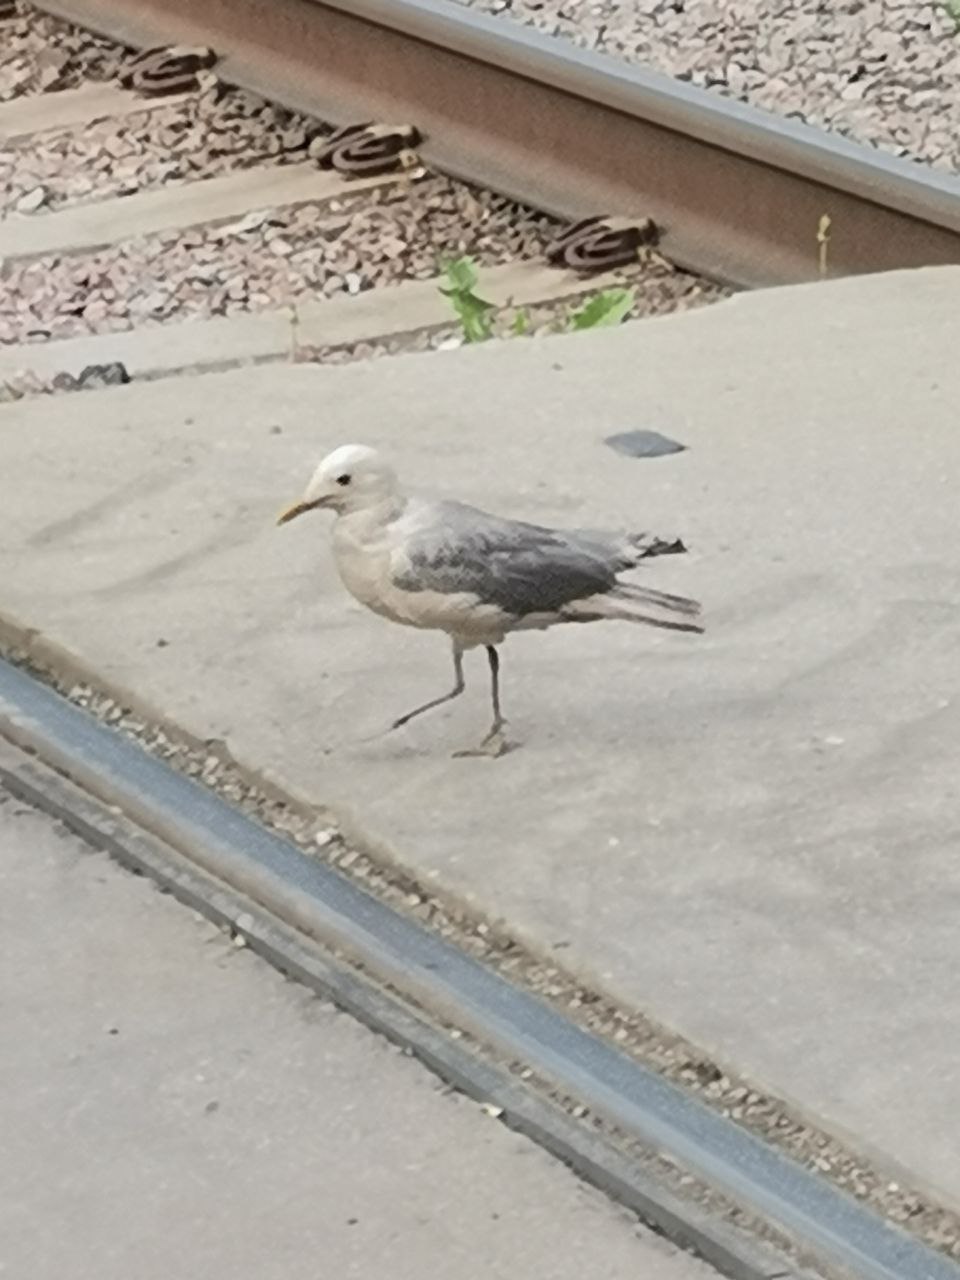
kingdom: Animalia
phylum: Chordata
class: Aves
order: Charadriiformes
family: Laridae
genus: Larus
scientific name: Larus canus
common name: Mew gull
